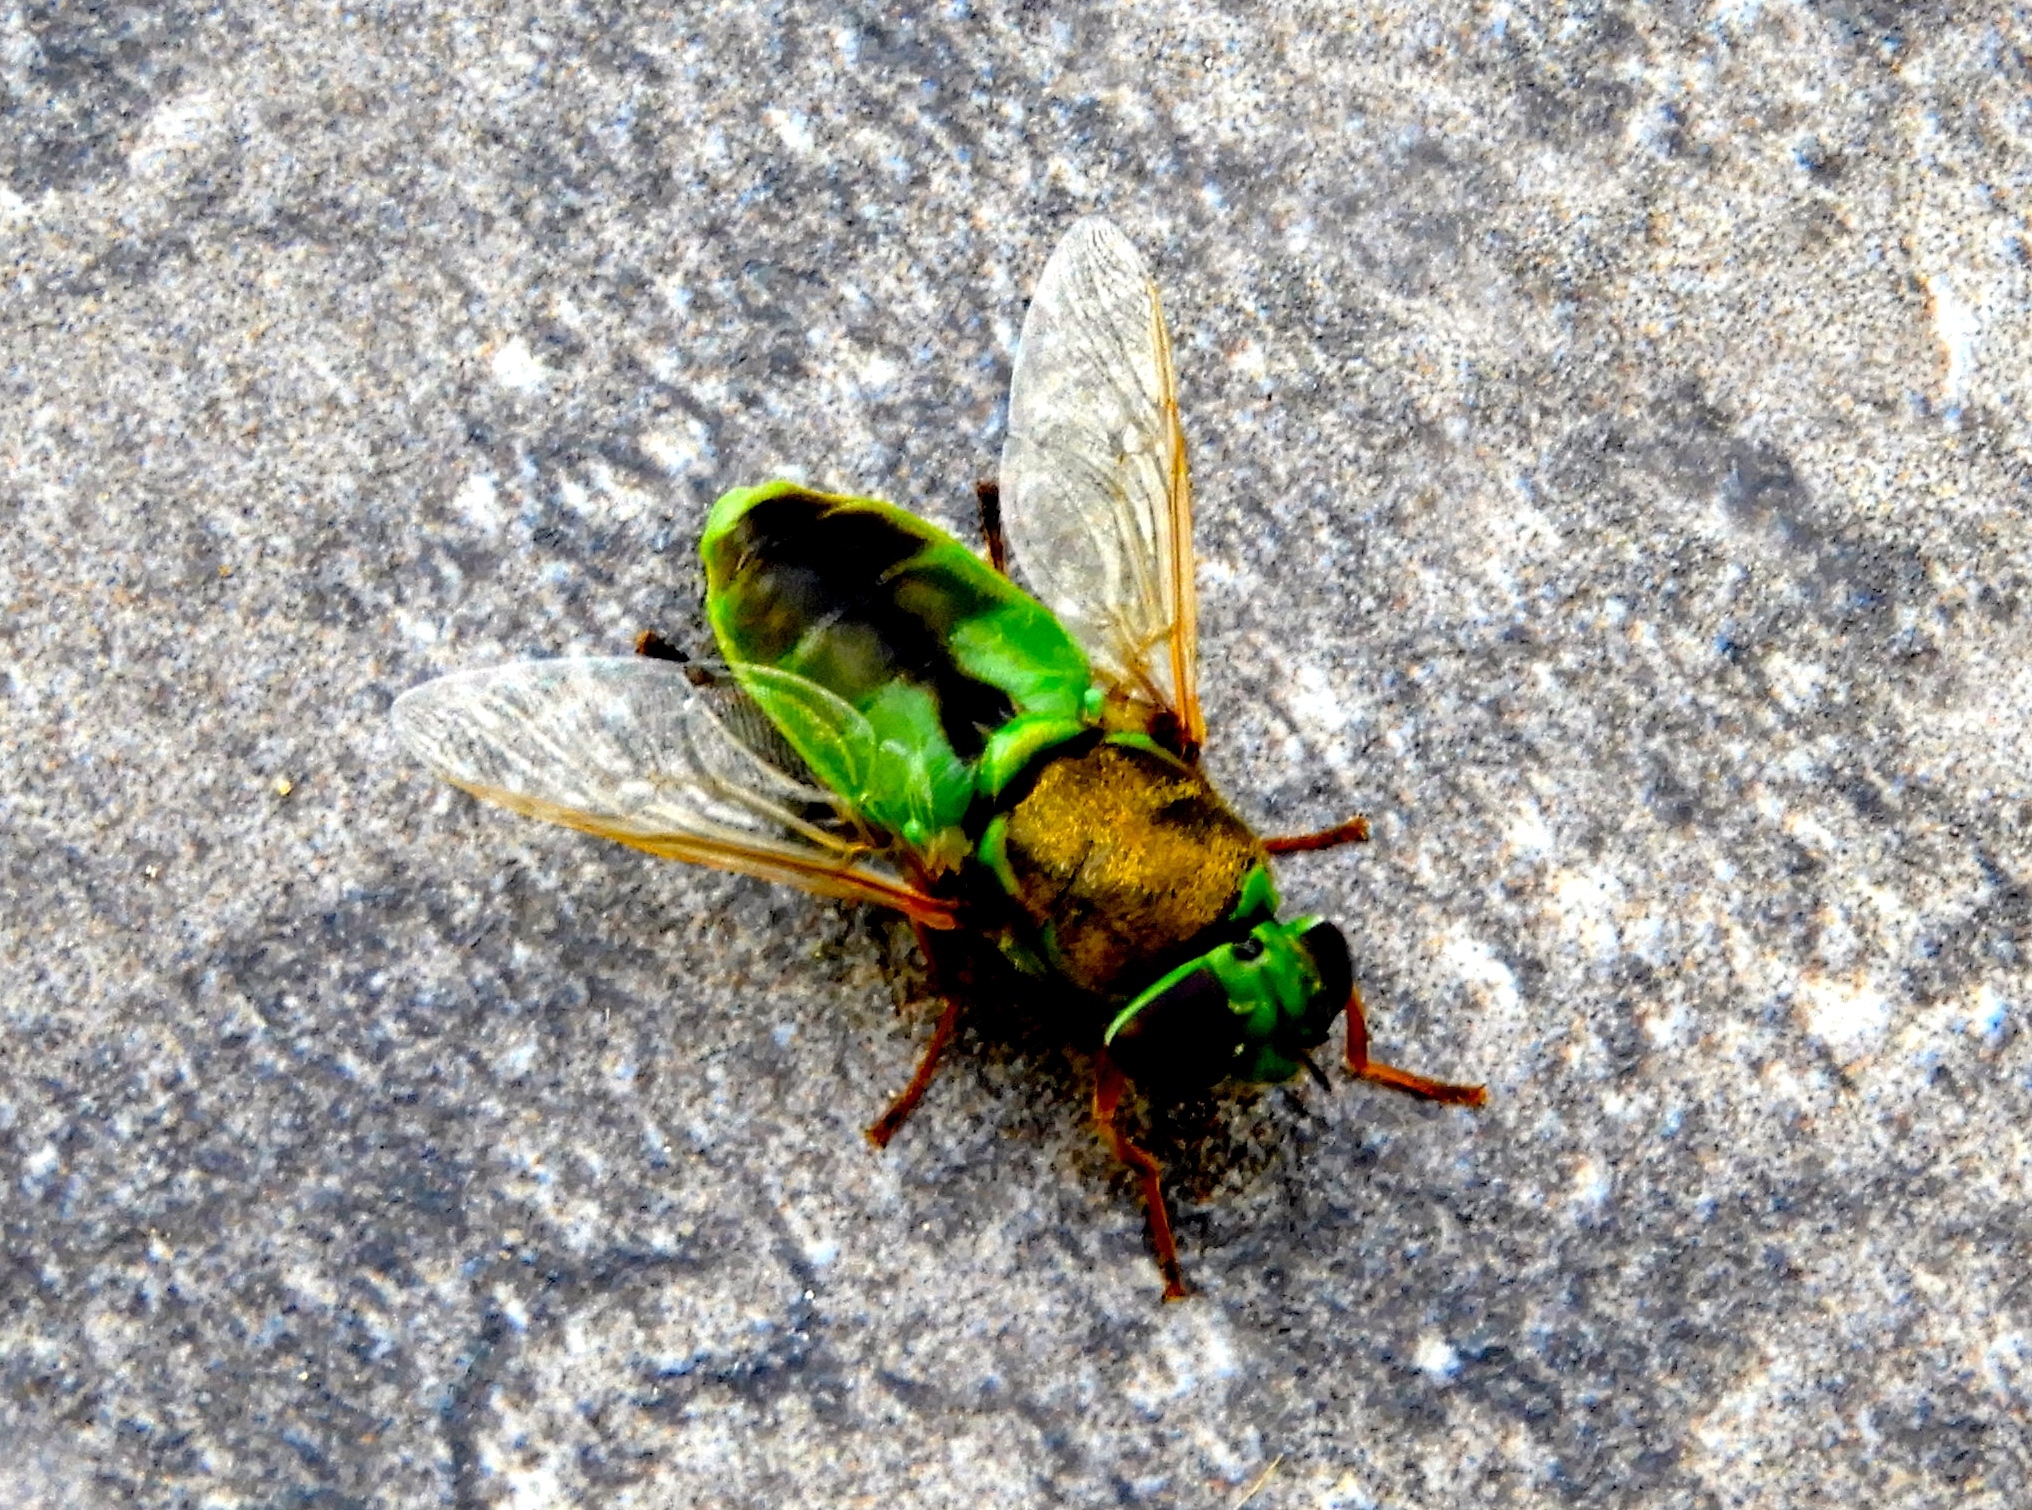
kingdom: Animalia
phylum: Arthropoda
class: Insecta
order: Diptera
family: Stratiomyidae
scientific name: Stratiomyidae
